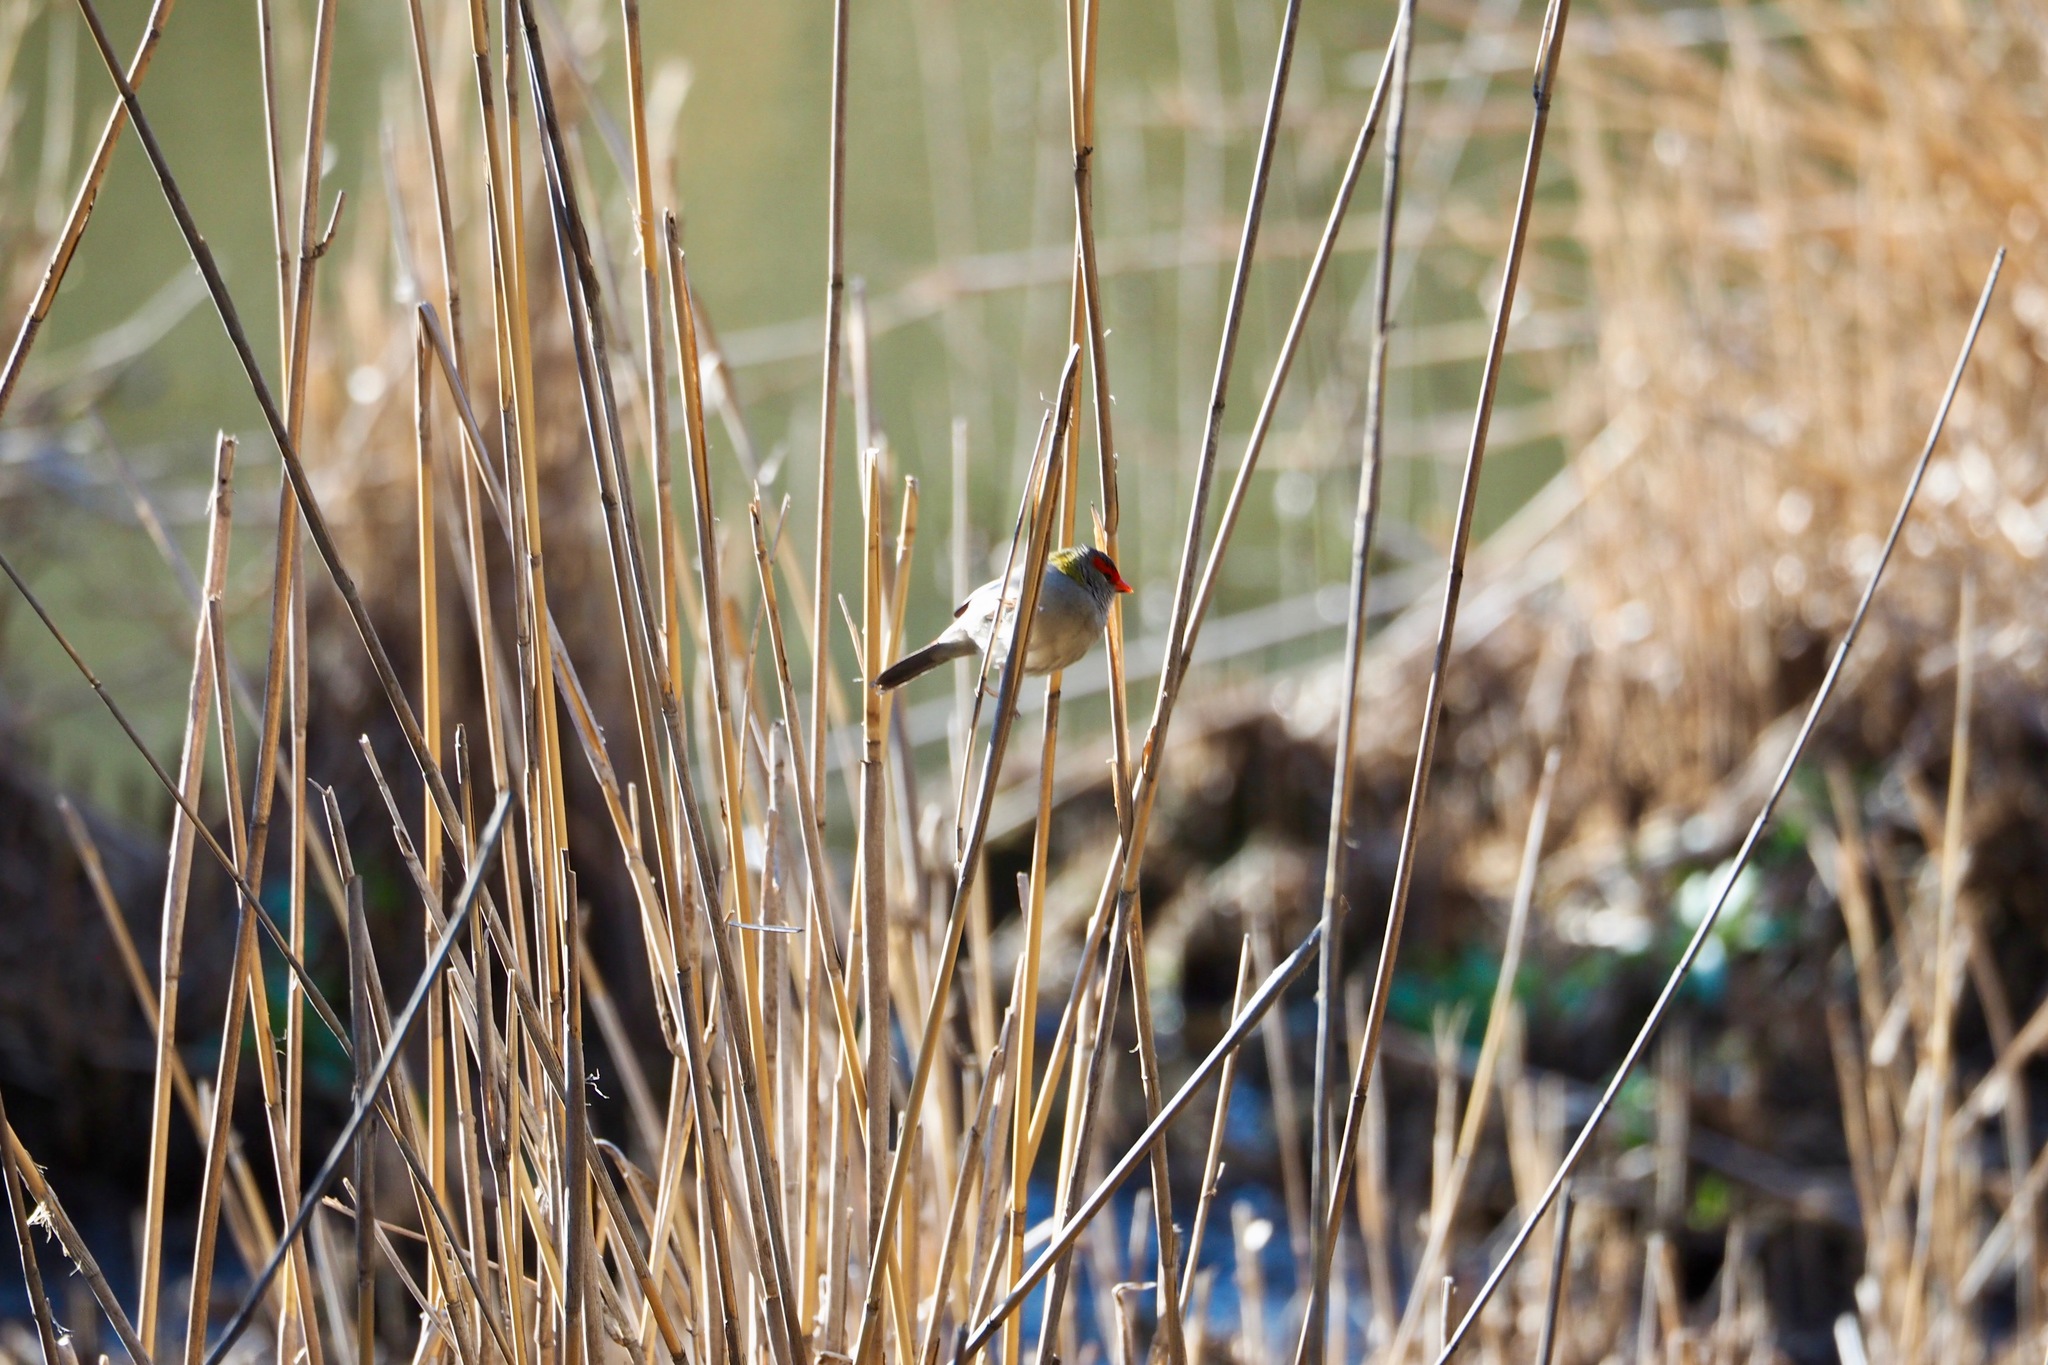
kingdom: Animalia
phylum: Chordata
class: Aves
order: Passeriformes
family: Estrildidae
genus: Neochmia
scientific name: Neochmia temporalis
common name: Red-browed finch
